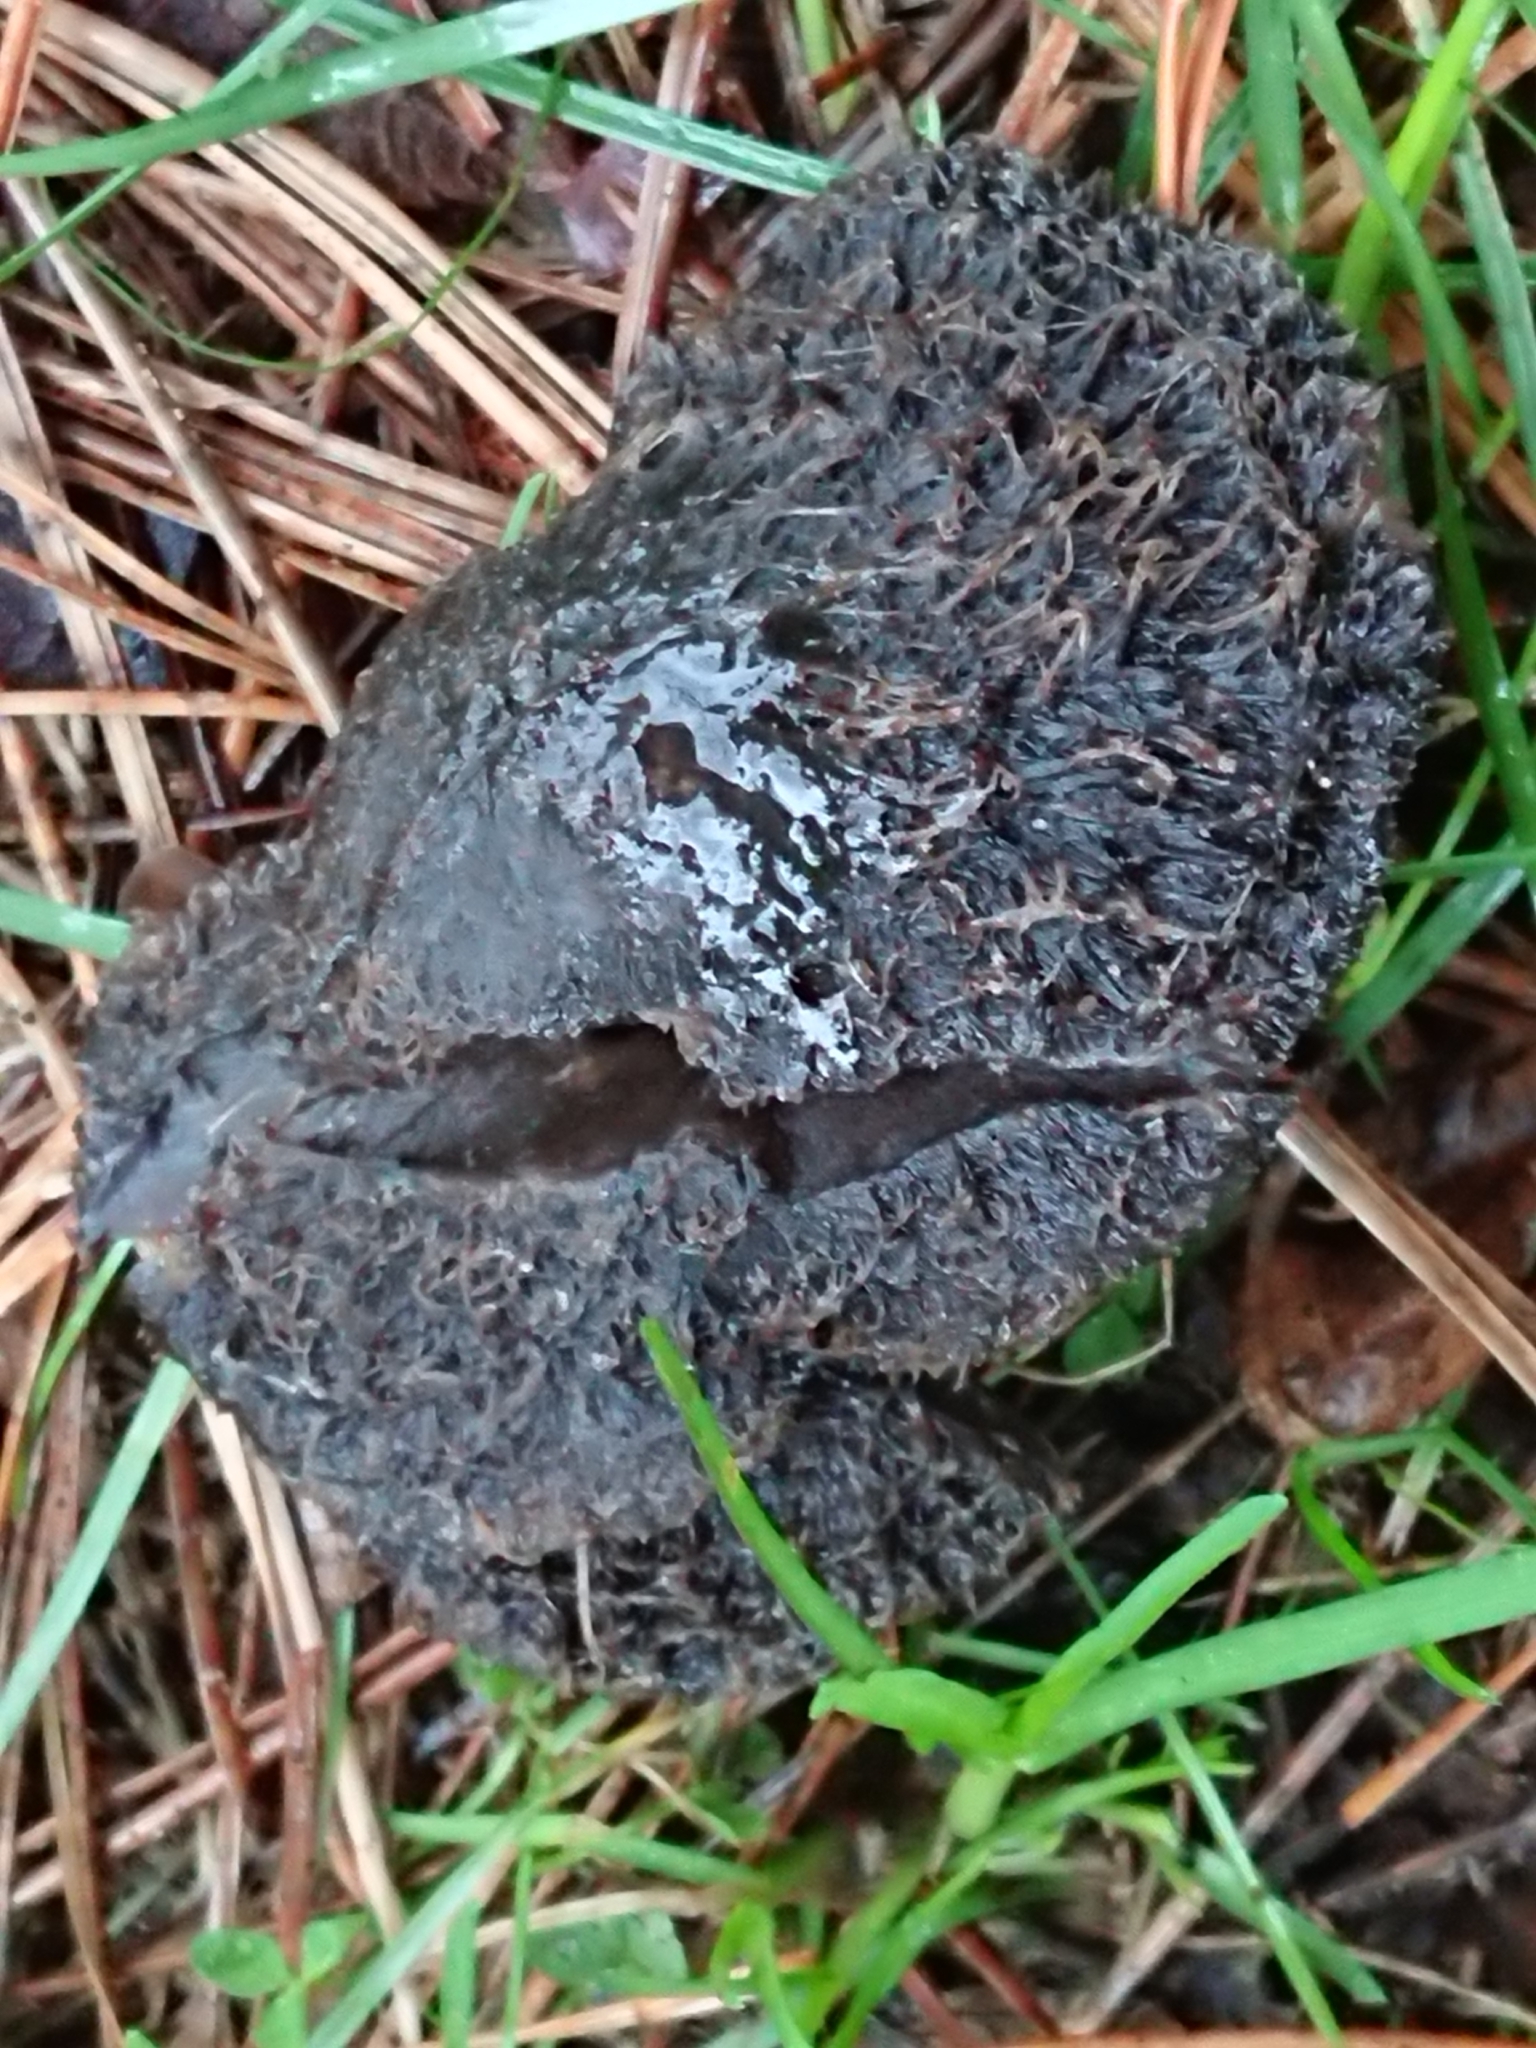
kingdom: Fungi
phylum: Basidiomycota
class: Agaricomycetes
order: Agaricales
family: Tricholomataceae
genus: Collybia
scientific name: Collybia
